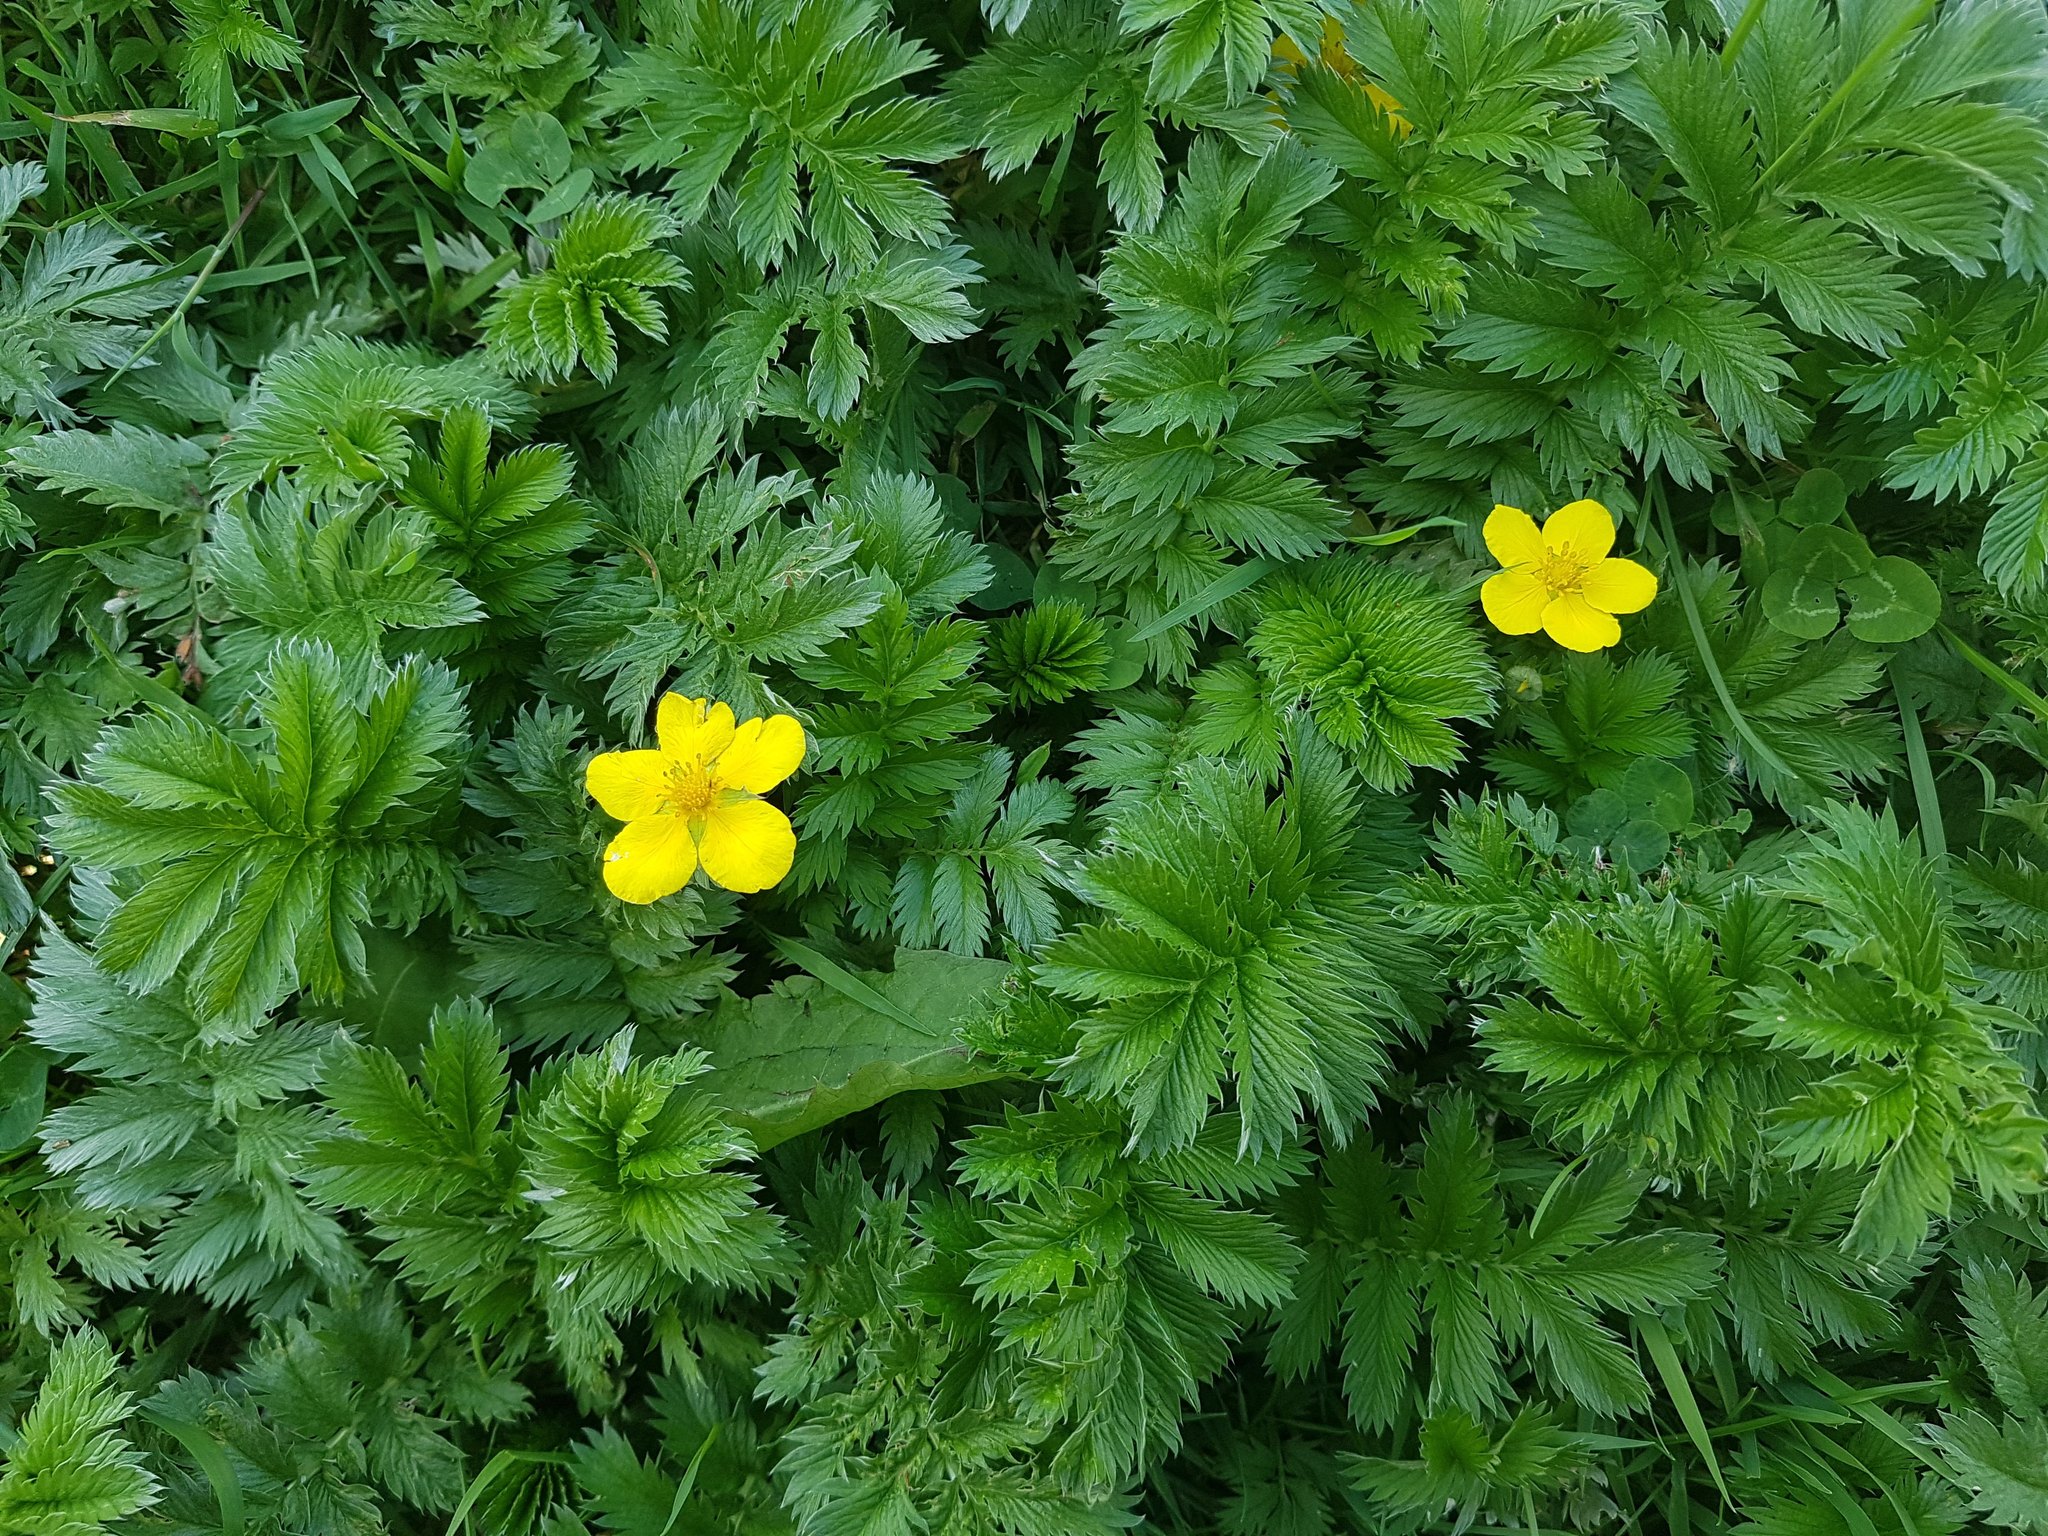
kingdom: Plantae
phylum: Tracheophyta
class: Magnoliopsida
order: Rosales
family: Rosaceae
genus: Argentina
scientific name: Argentina anserina
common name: Common silverweed
